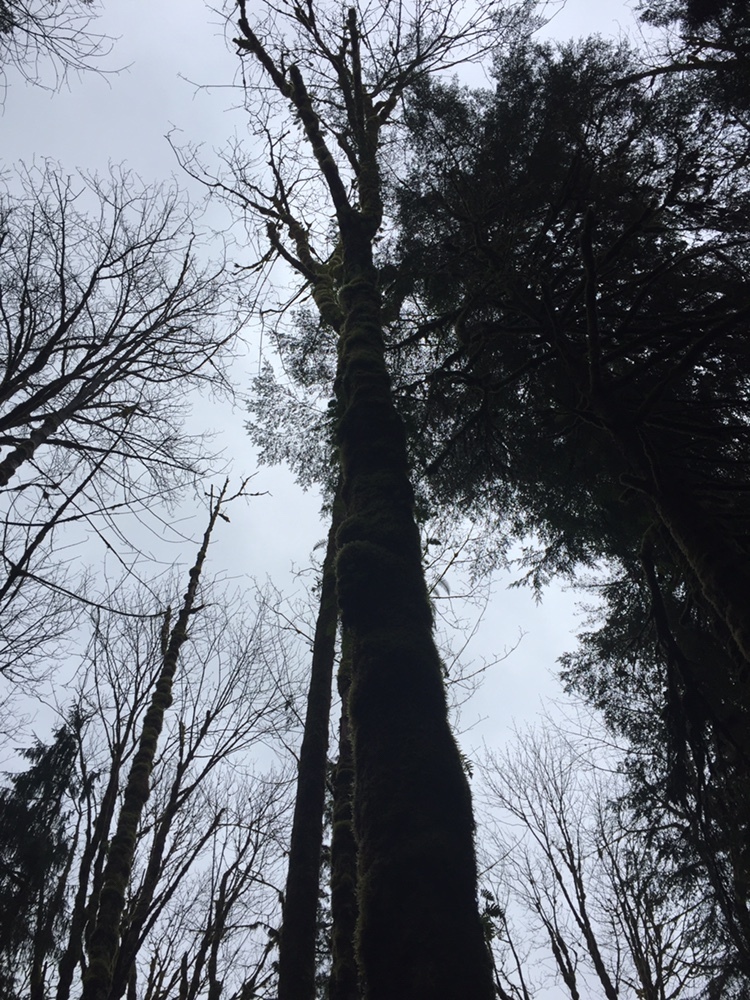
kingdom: Plantae
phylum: Tracheophyta
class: Magnoliopsida
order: Sapindales
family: Sapindaceae
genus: Acer
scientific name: Acer macrophyllum
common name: Oregon maple
